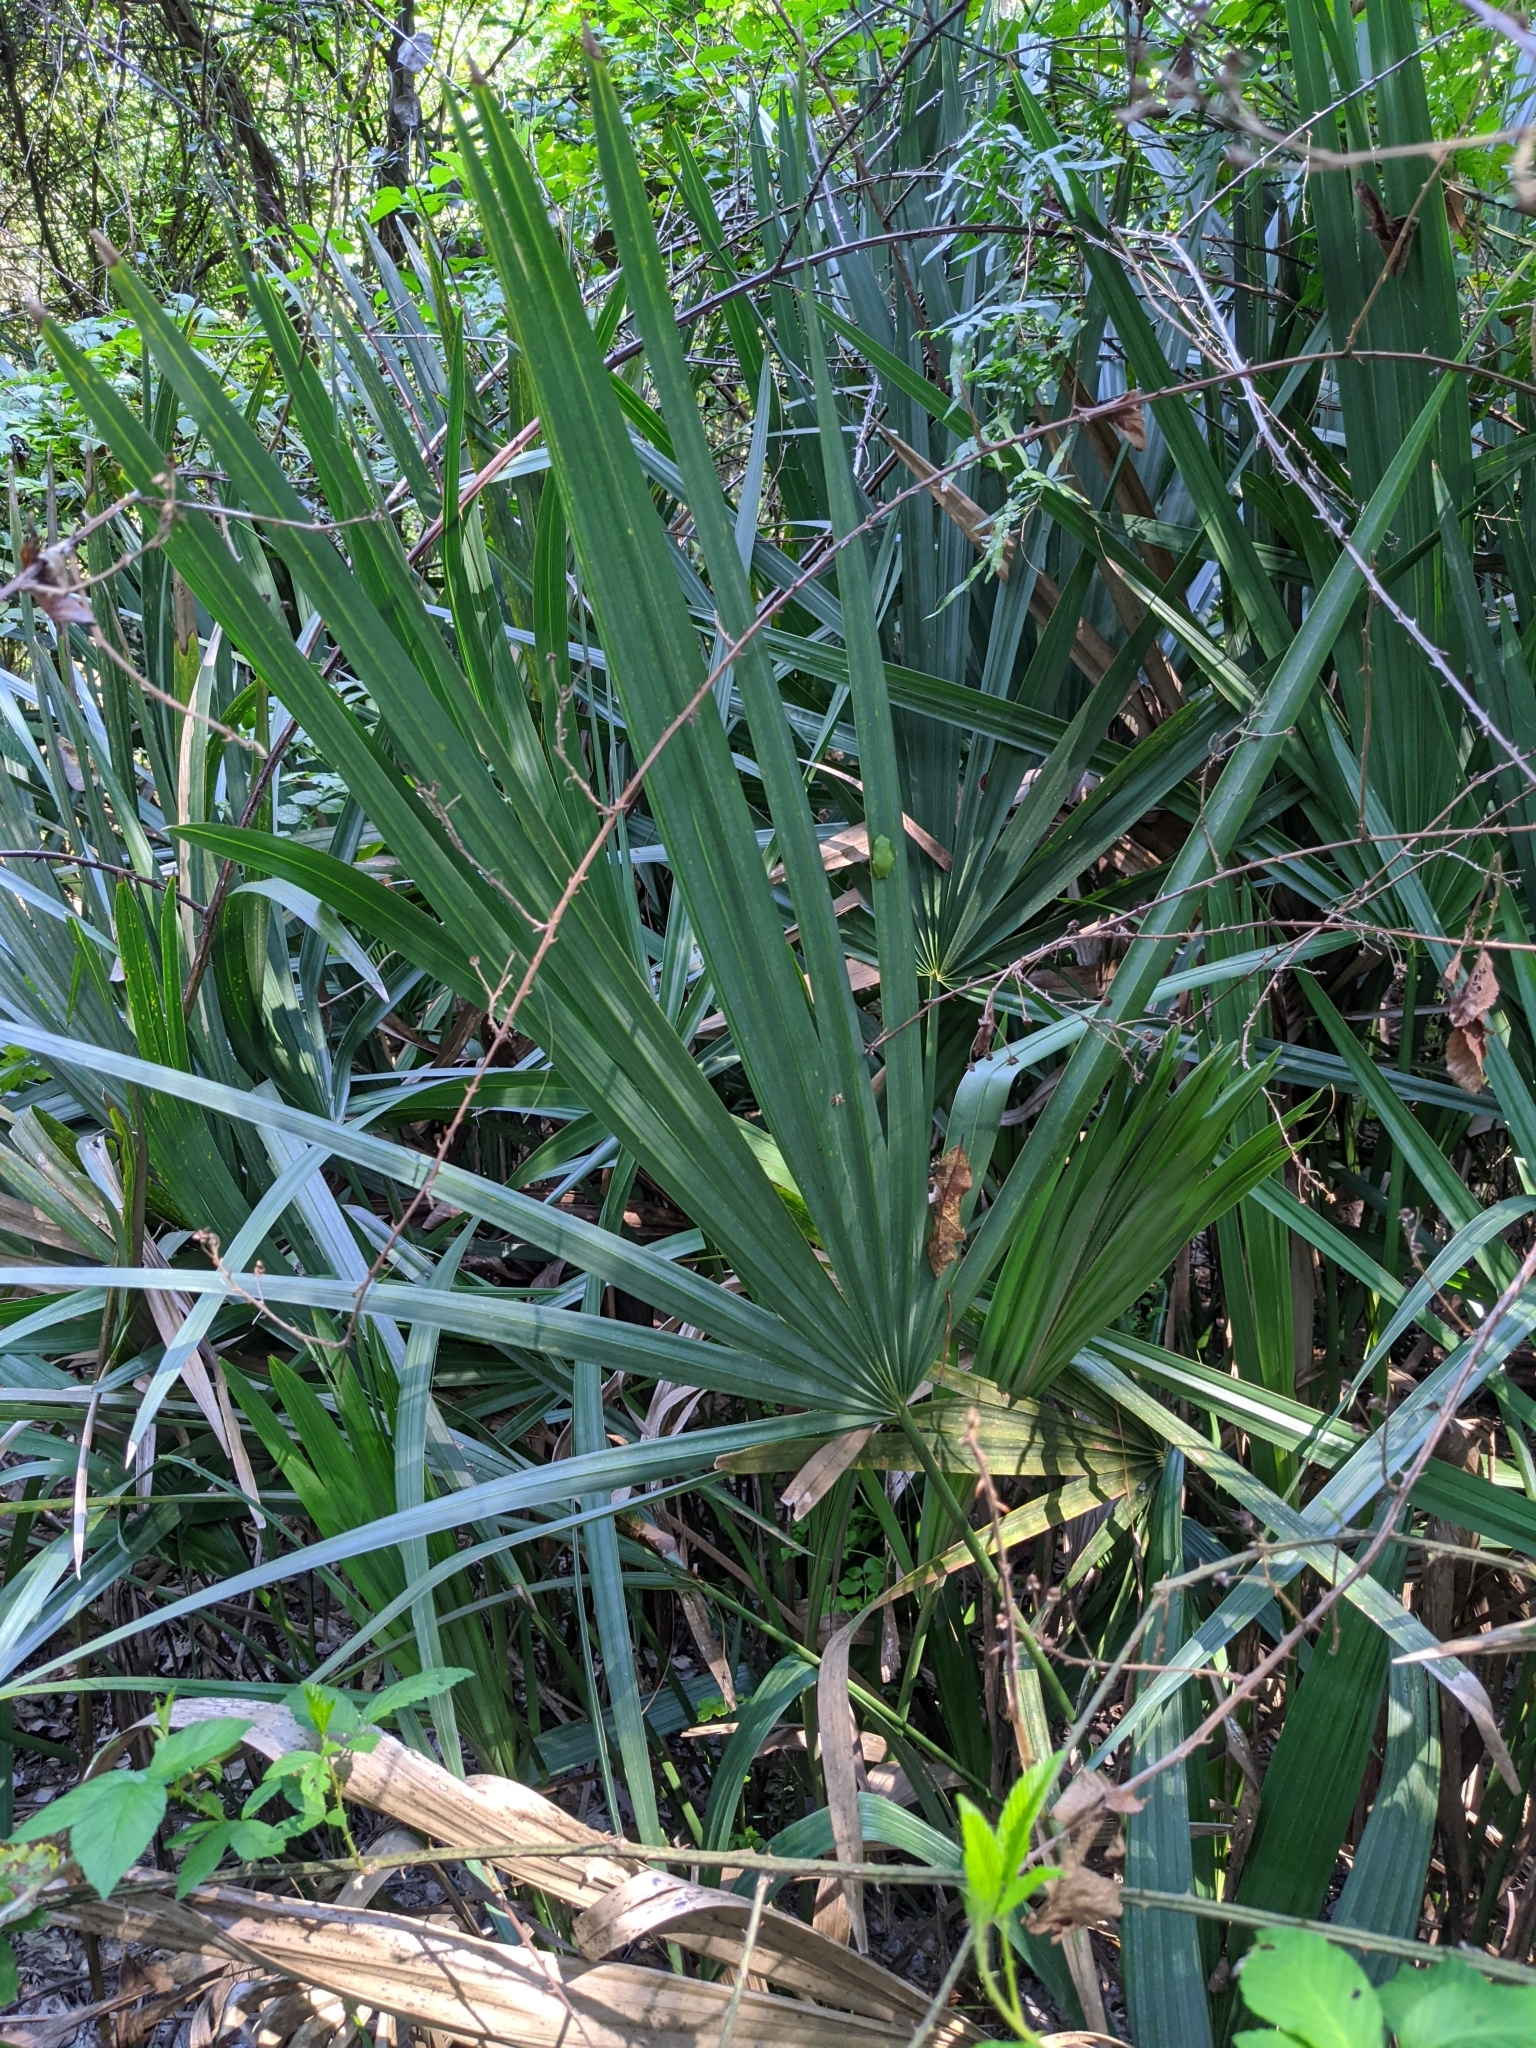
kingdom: Plantae
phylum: Tracheophyta
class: Liliopsida
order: Arecales
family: Arecaceae
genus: Sabal
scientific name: Sabal minor
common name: Dwarf palmetto
